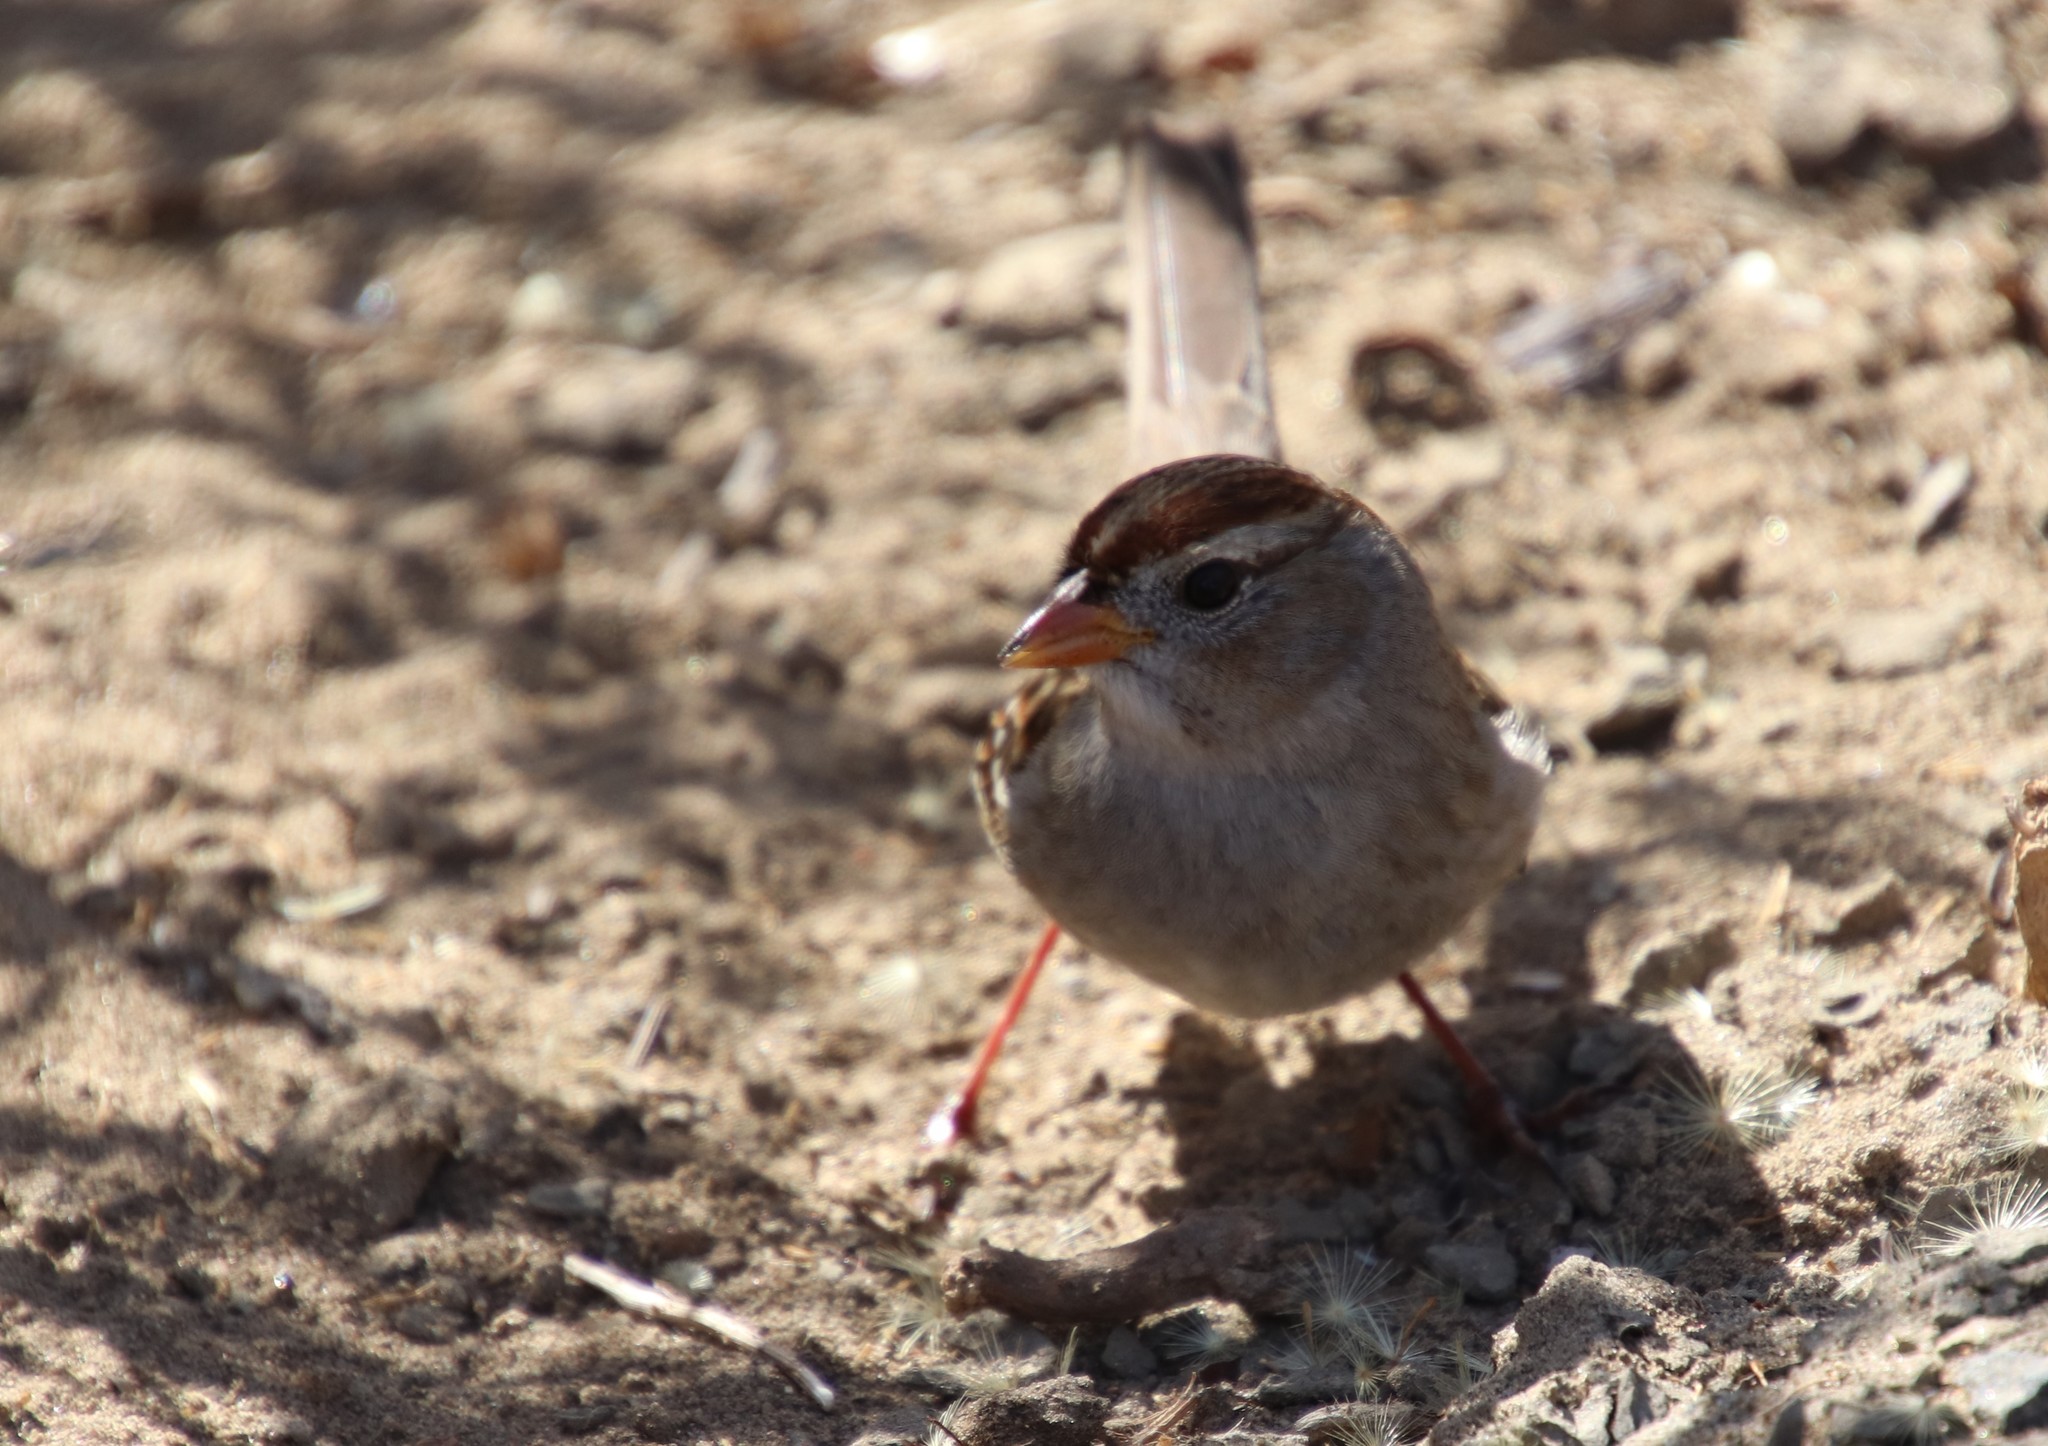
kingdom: Animalia
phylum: Chordata
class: Aves
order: Passeriformes
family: Passerellidae
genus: Zonotrichia
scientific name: Zonotrichia leucophrys
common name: White-crowned sparrow
